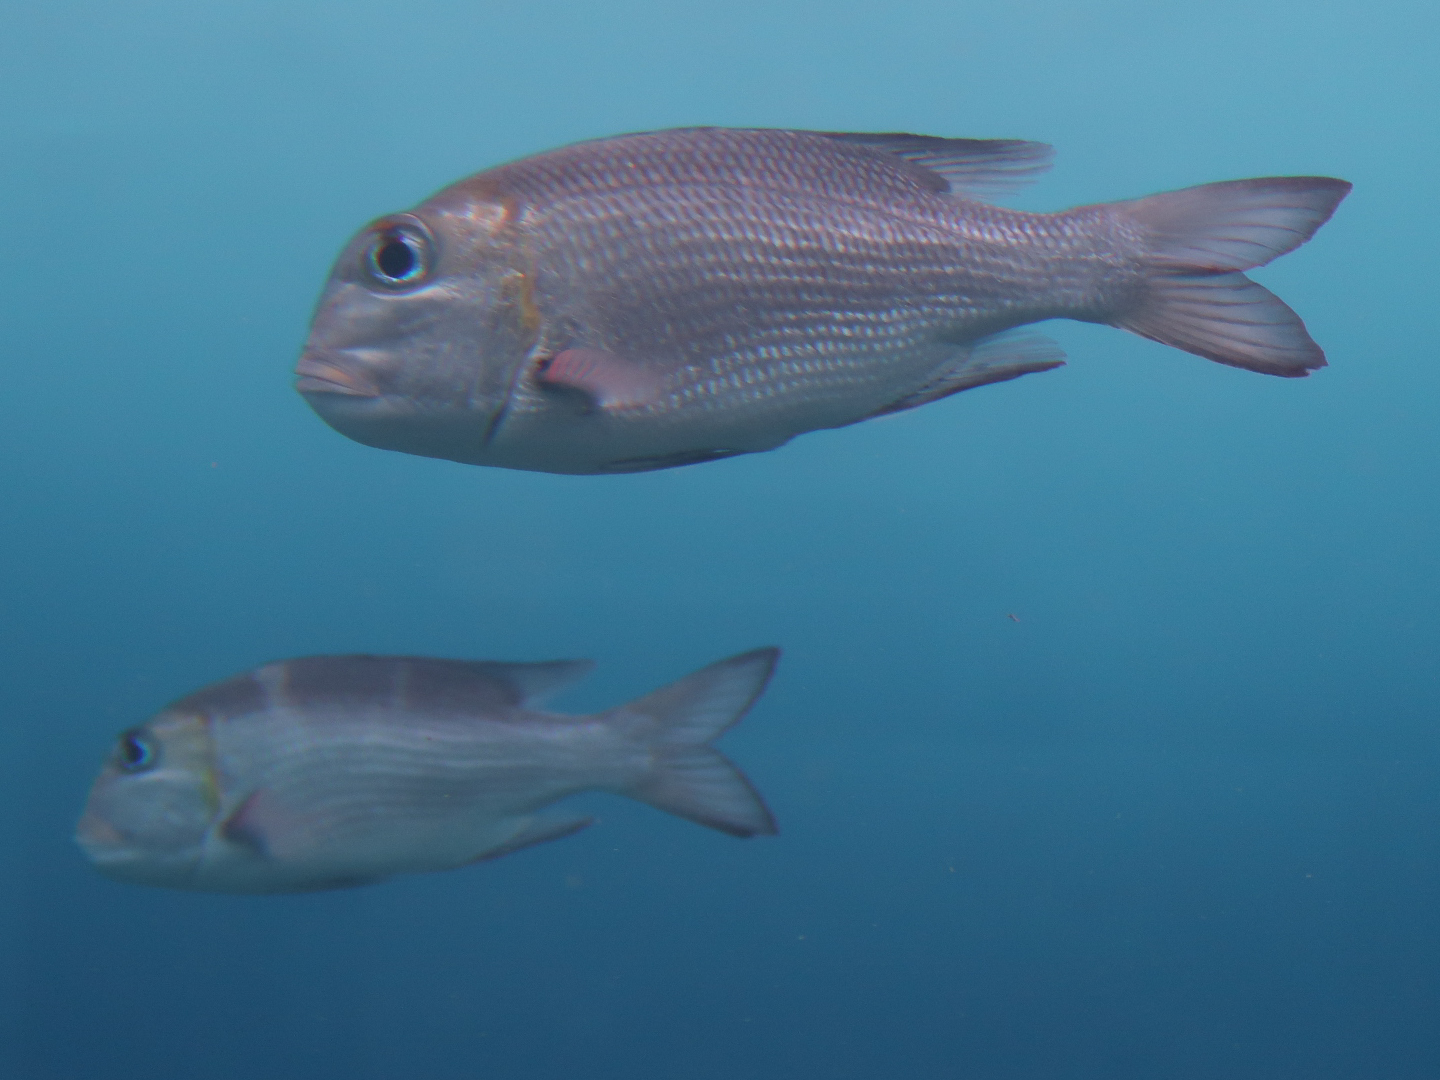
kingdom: Animalia
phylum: Chordata
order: Perciformes
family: Lethrinidae
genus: Monotaxis
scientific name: Monotaxis grandoculis
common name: Bigeye emperor
